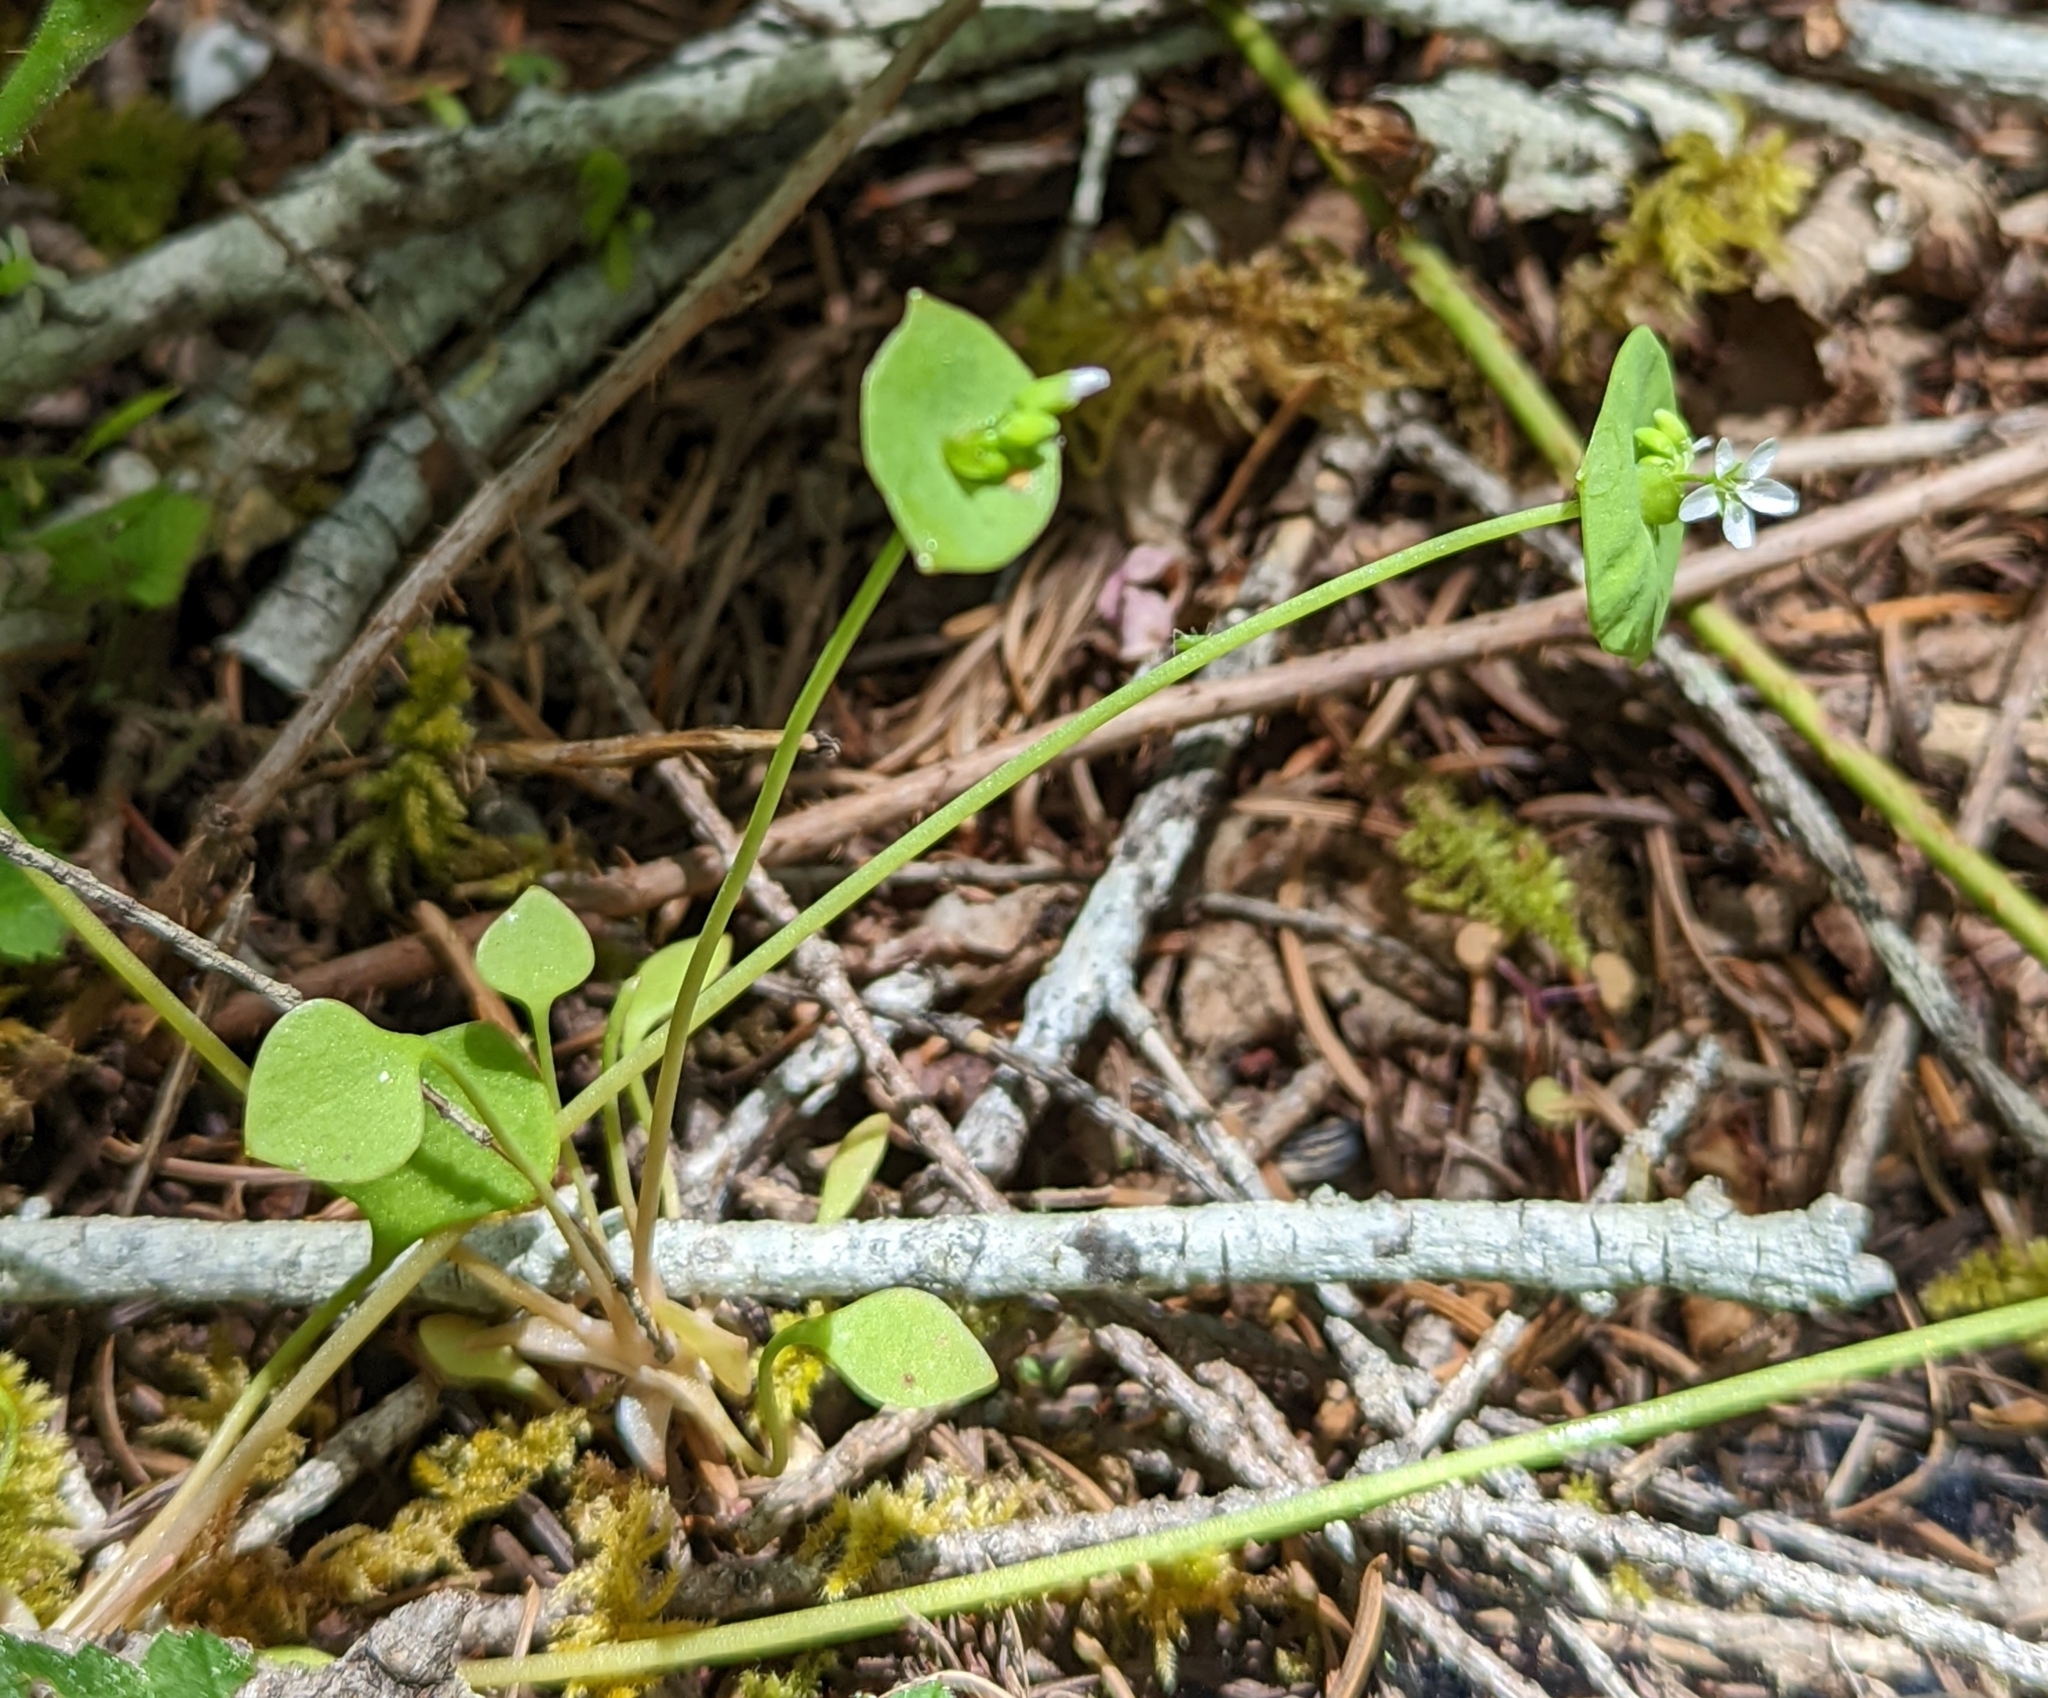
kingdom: Plantae
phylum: Tracheophyta
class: Magnoliopsida
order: Caryophyllales
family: Montiaceae
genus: Claytonia
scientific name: Claytonia perfoliata
